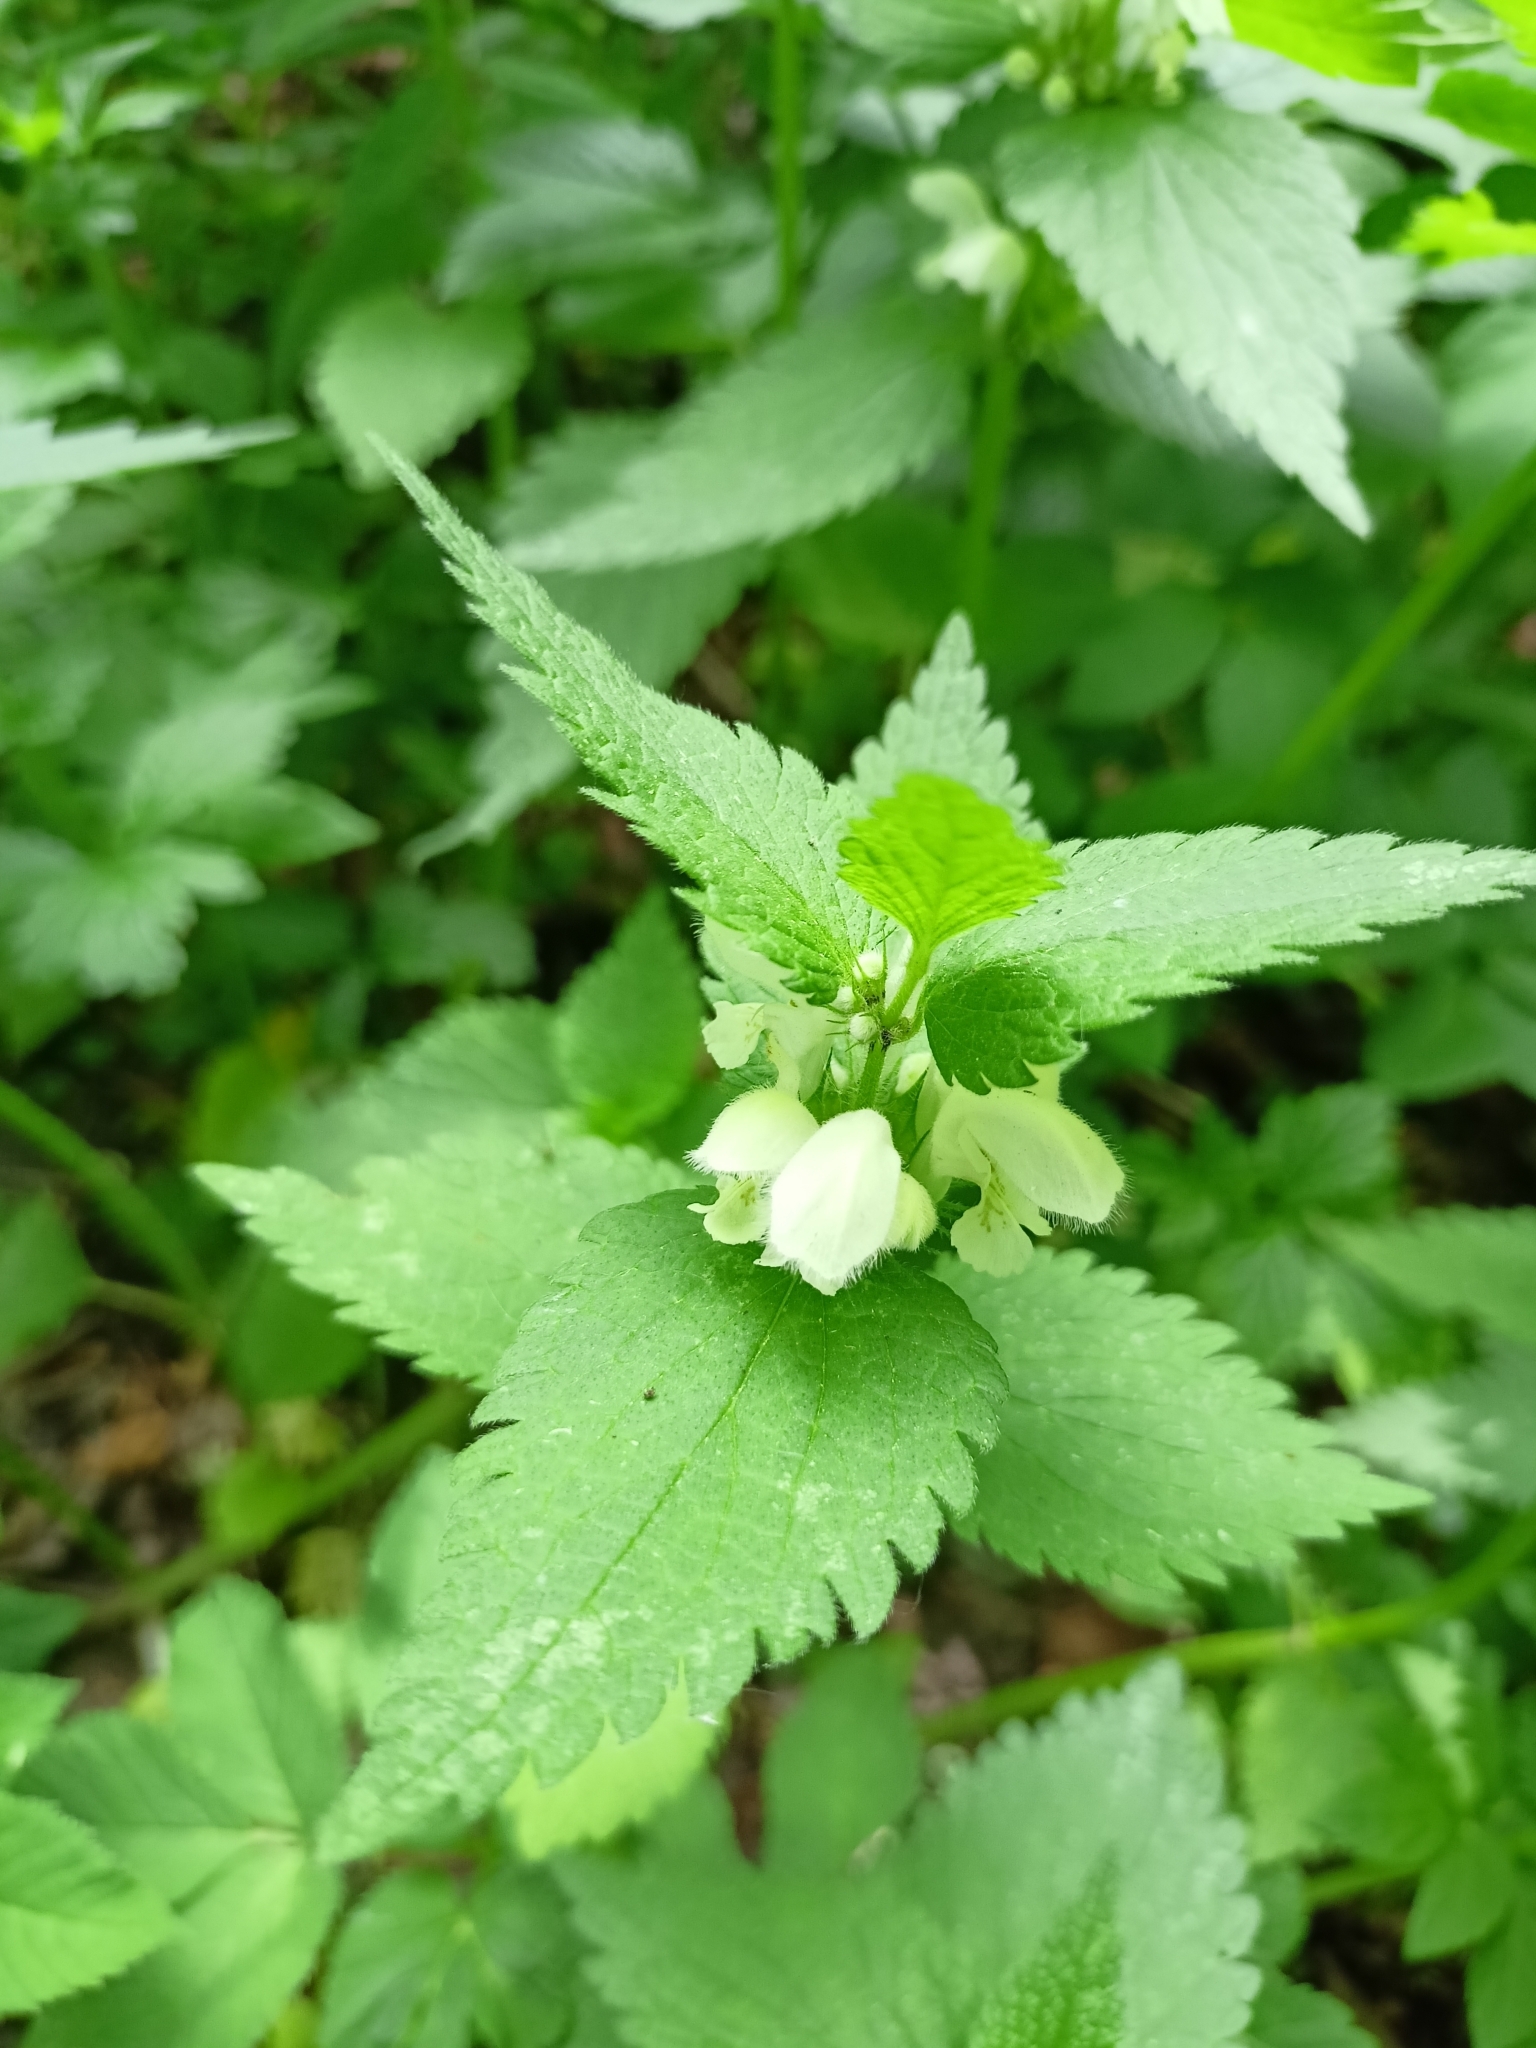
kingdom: Plantae
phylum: Tracheophyta
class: Magnoliopsida
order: Lamiales
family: Lamiaceae
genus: Lamium
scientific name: Lamium album
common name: White dead-nettle
